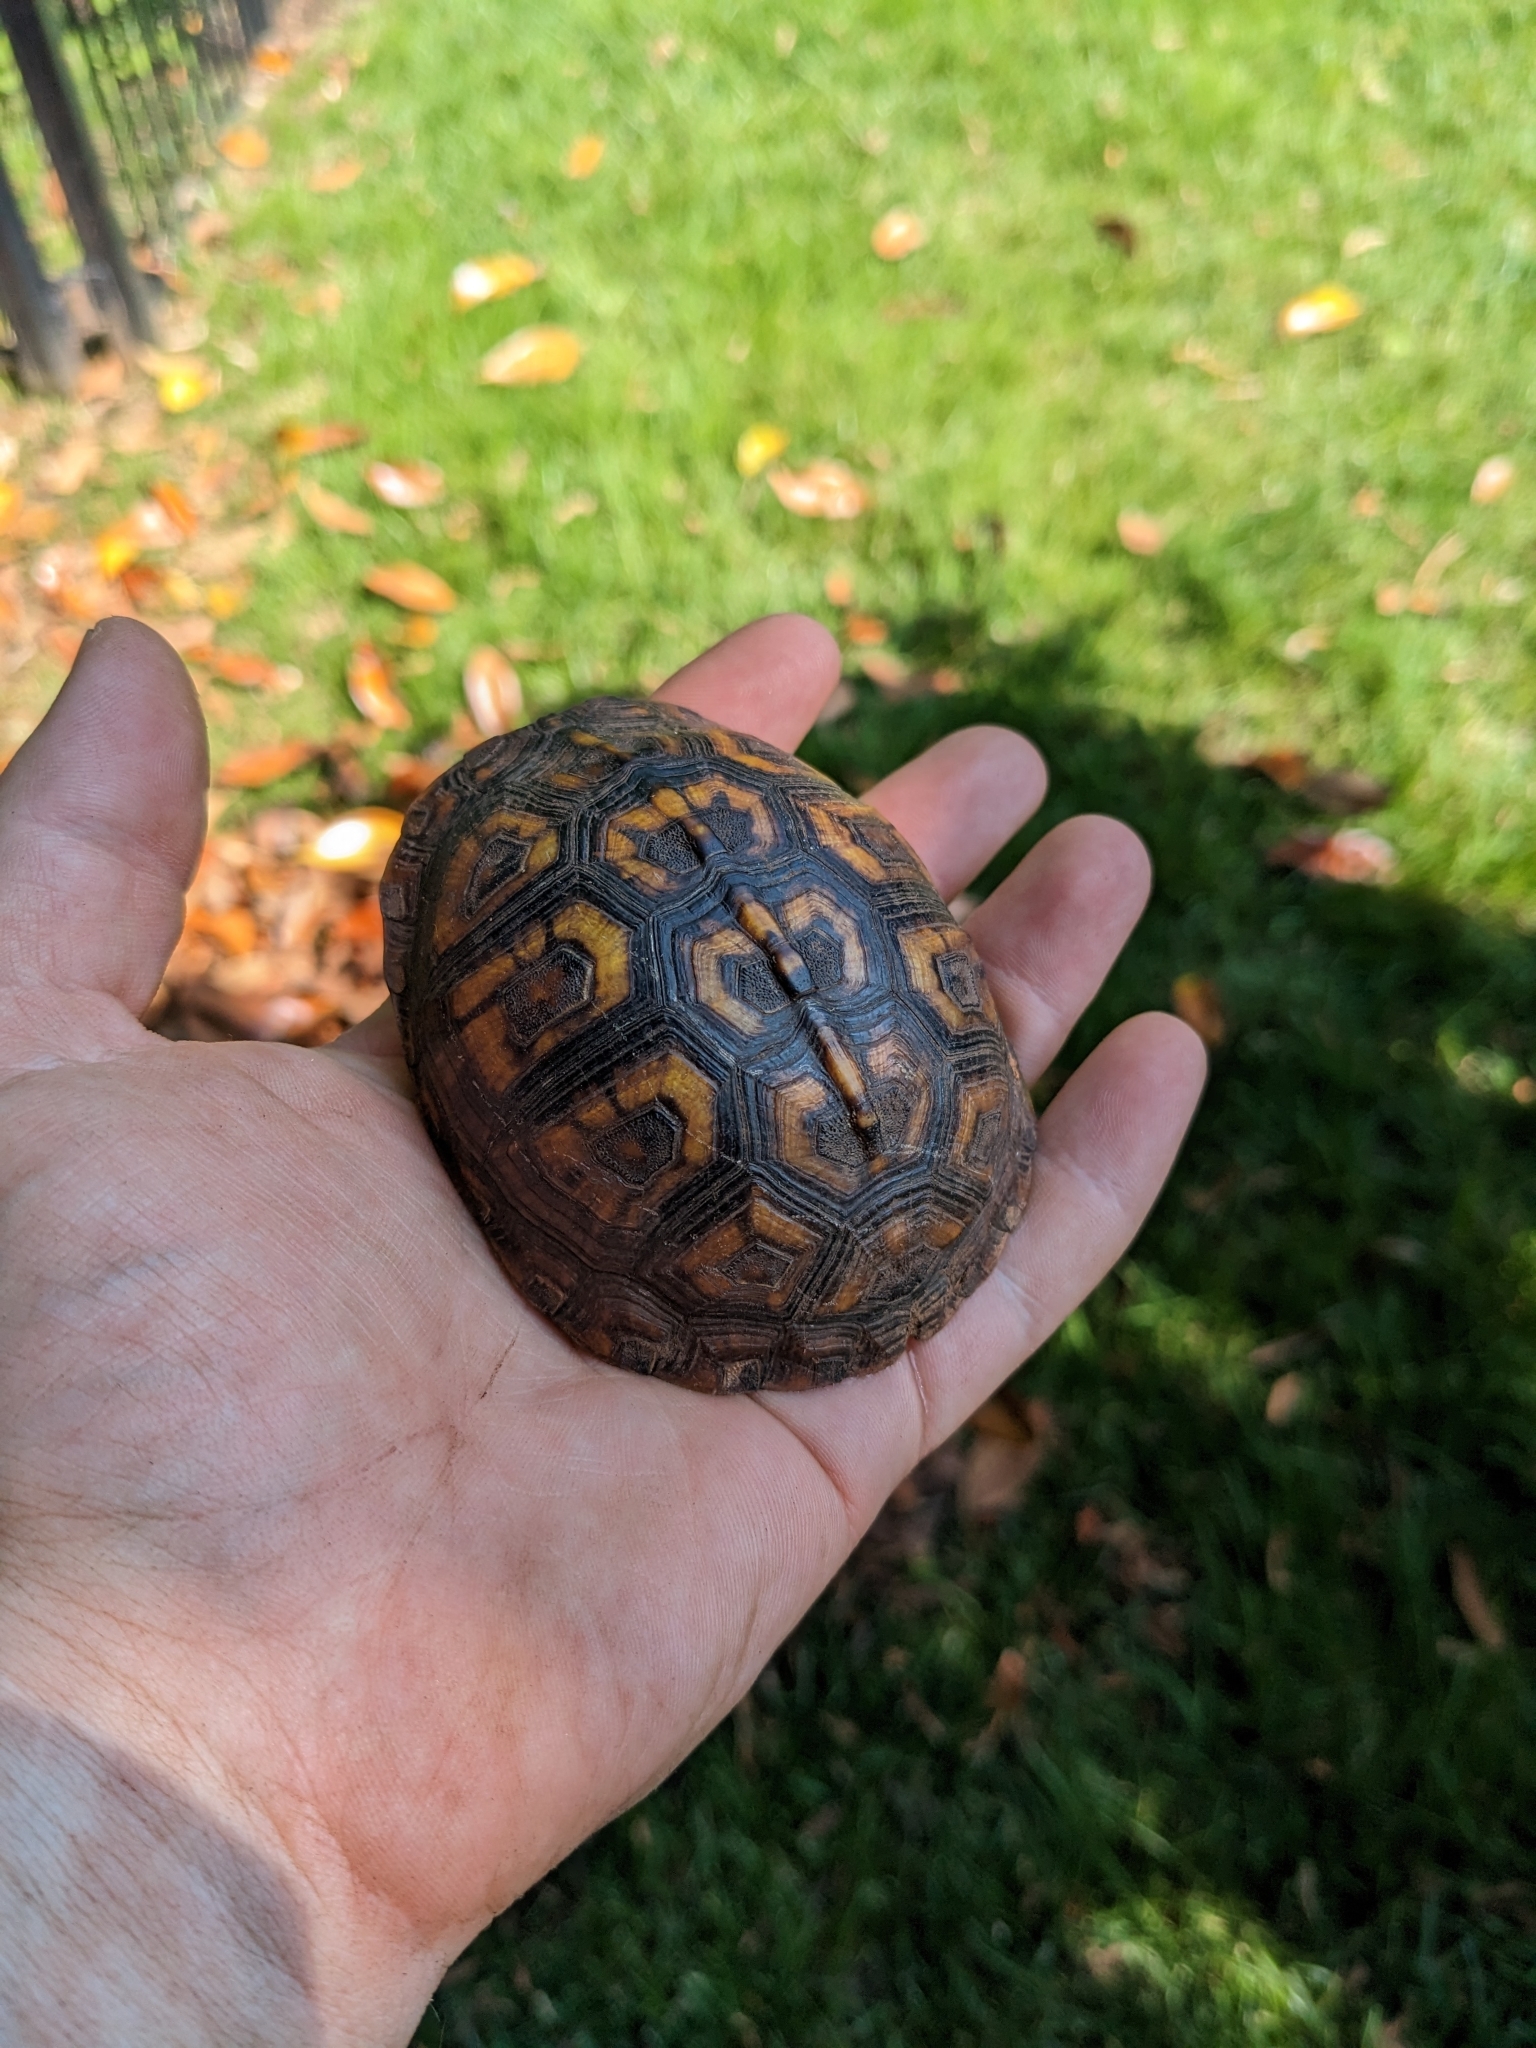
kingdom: Animalia
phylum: Chordata
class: Testudines
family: Emydidae
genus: Terrapene
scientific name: Terrapene carolina
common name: Common box turtle
